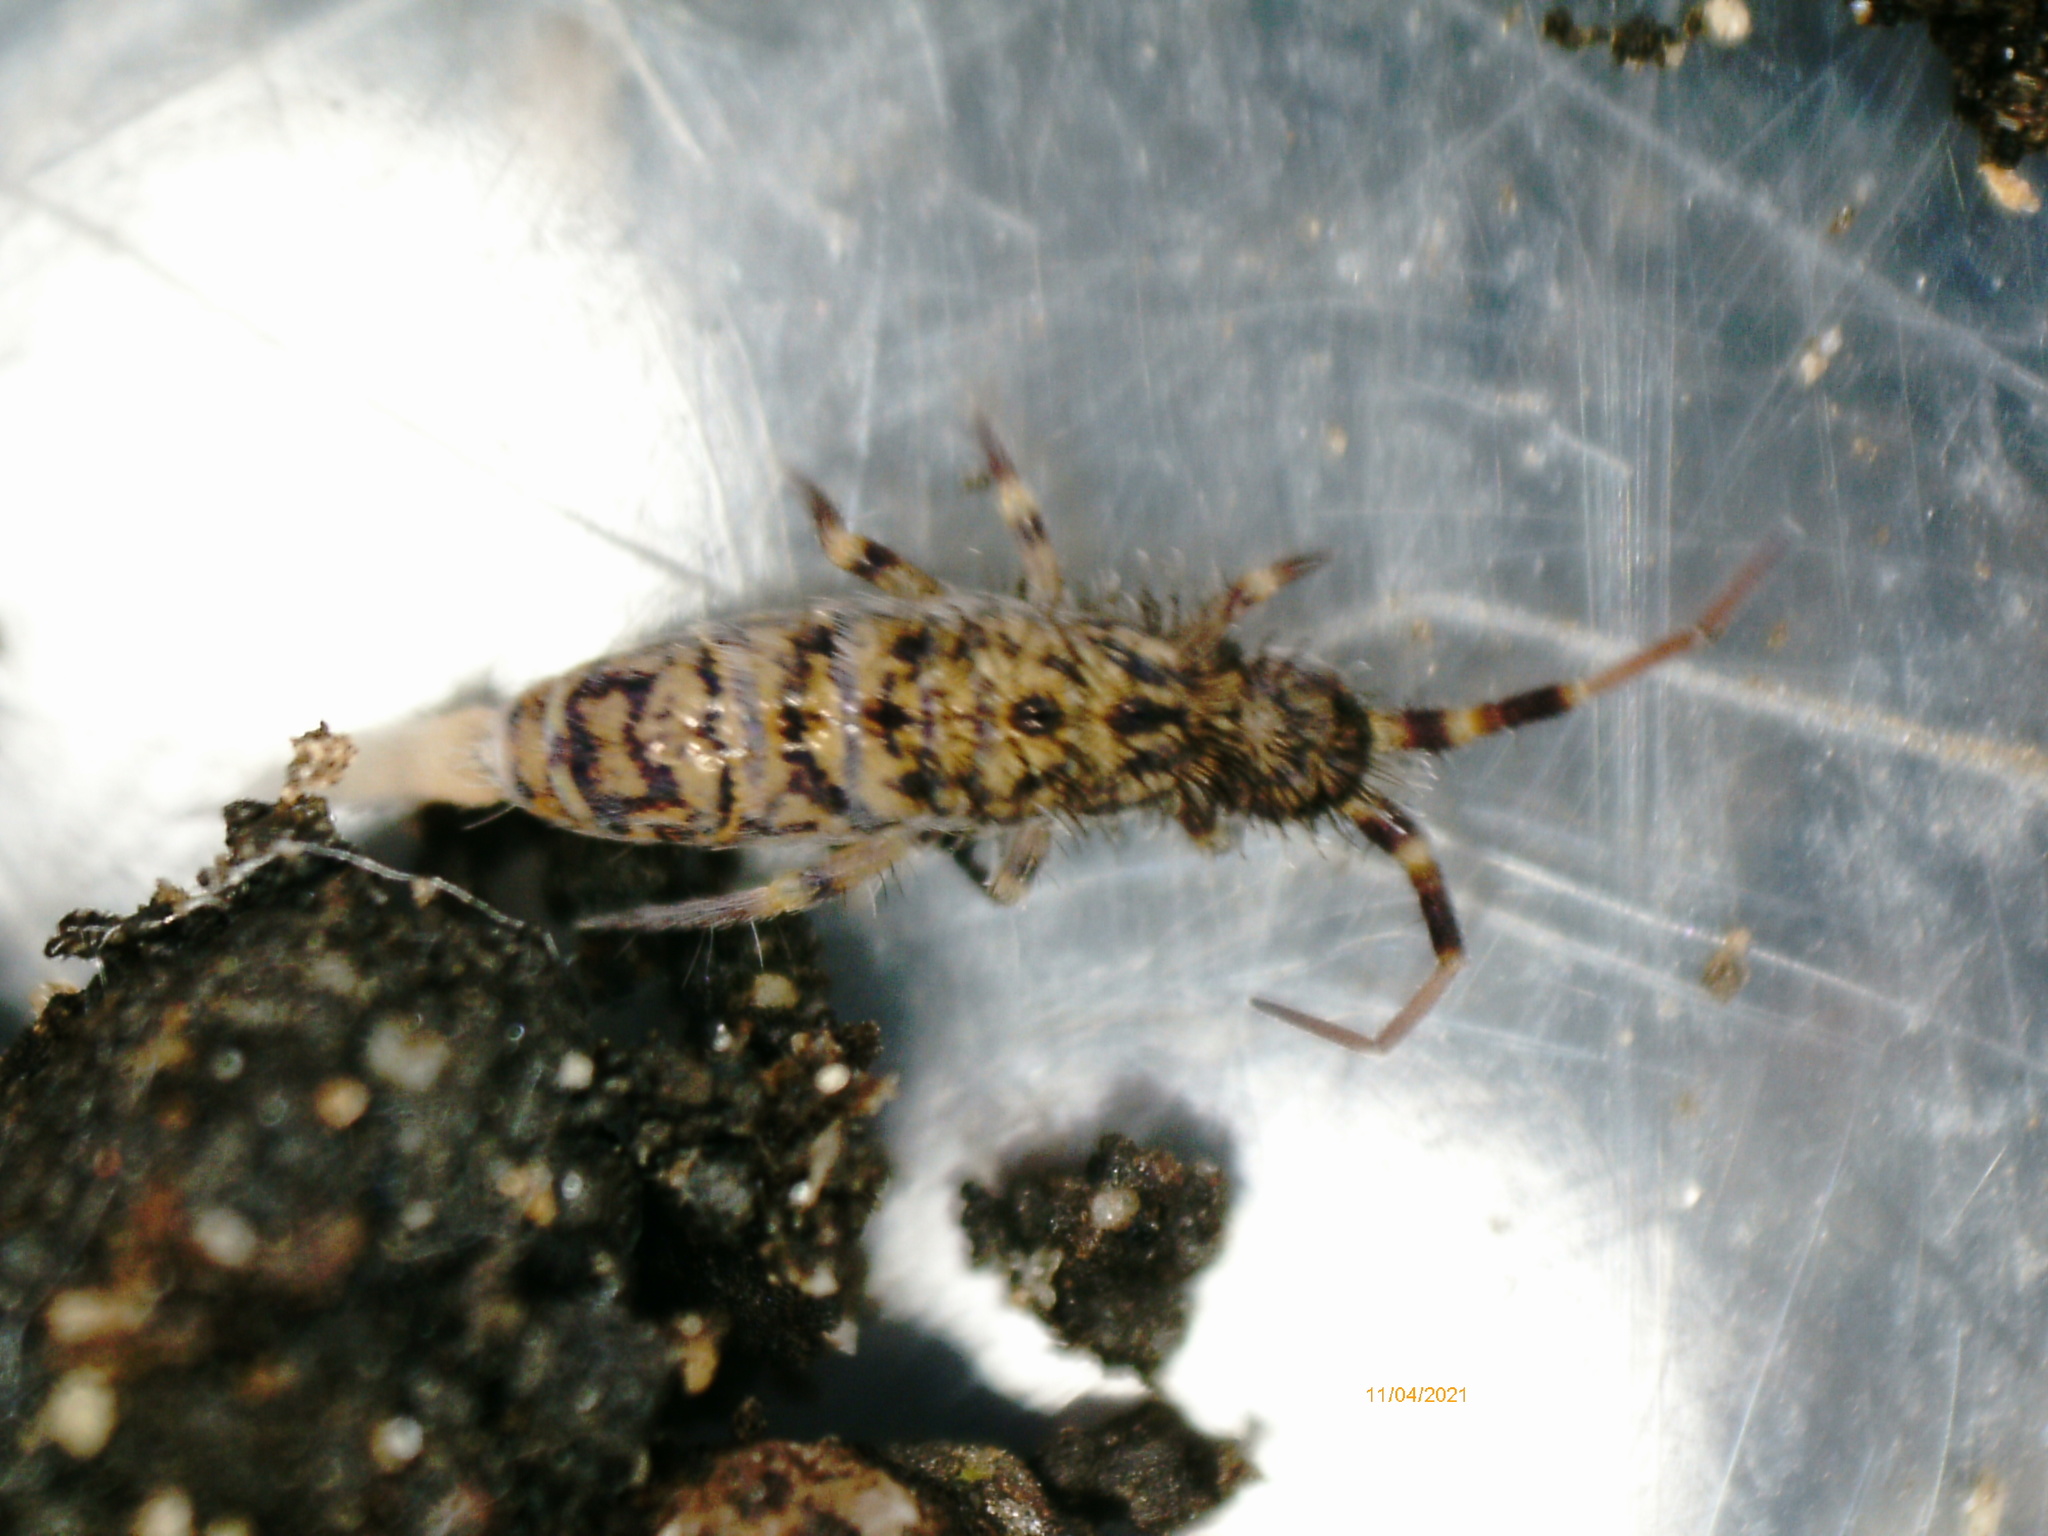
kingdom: Animalia
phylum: Arthropoda
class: Collembola
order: Entomobryomorpha
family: Orchesellidae
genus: Orchesella
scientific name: Orchesella villosa
